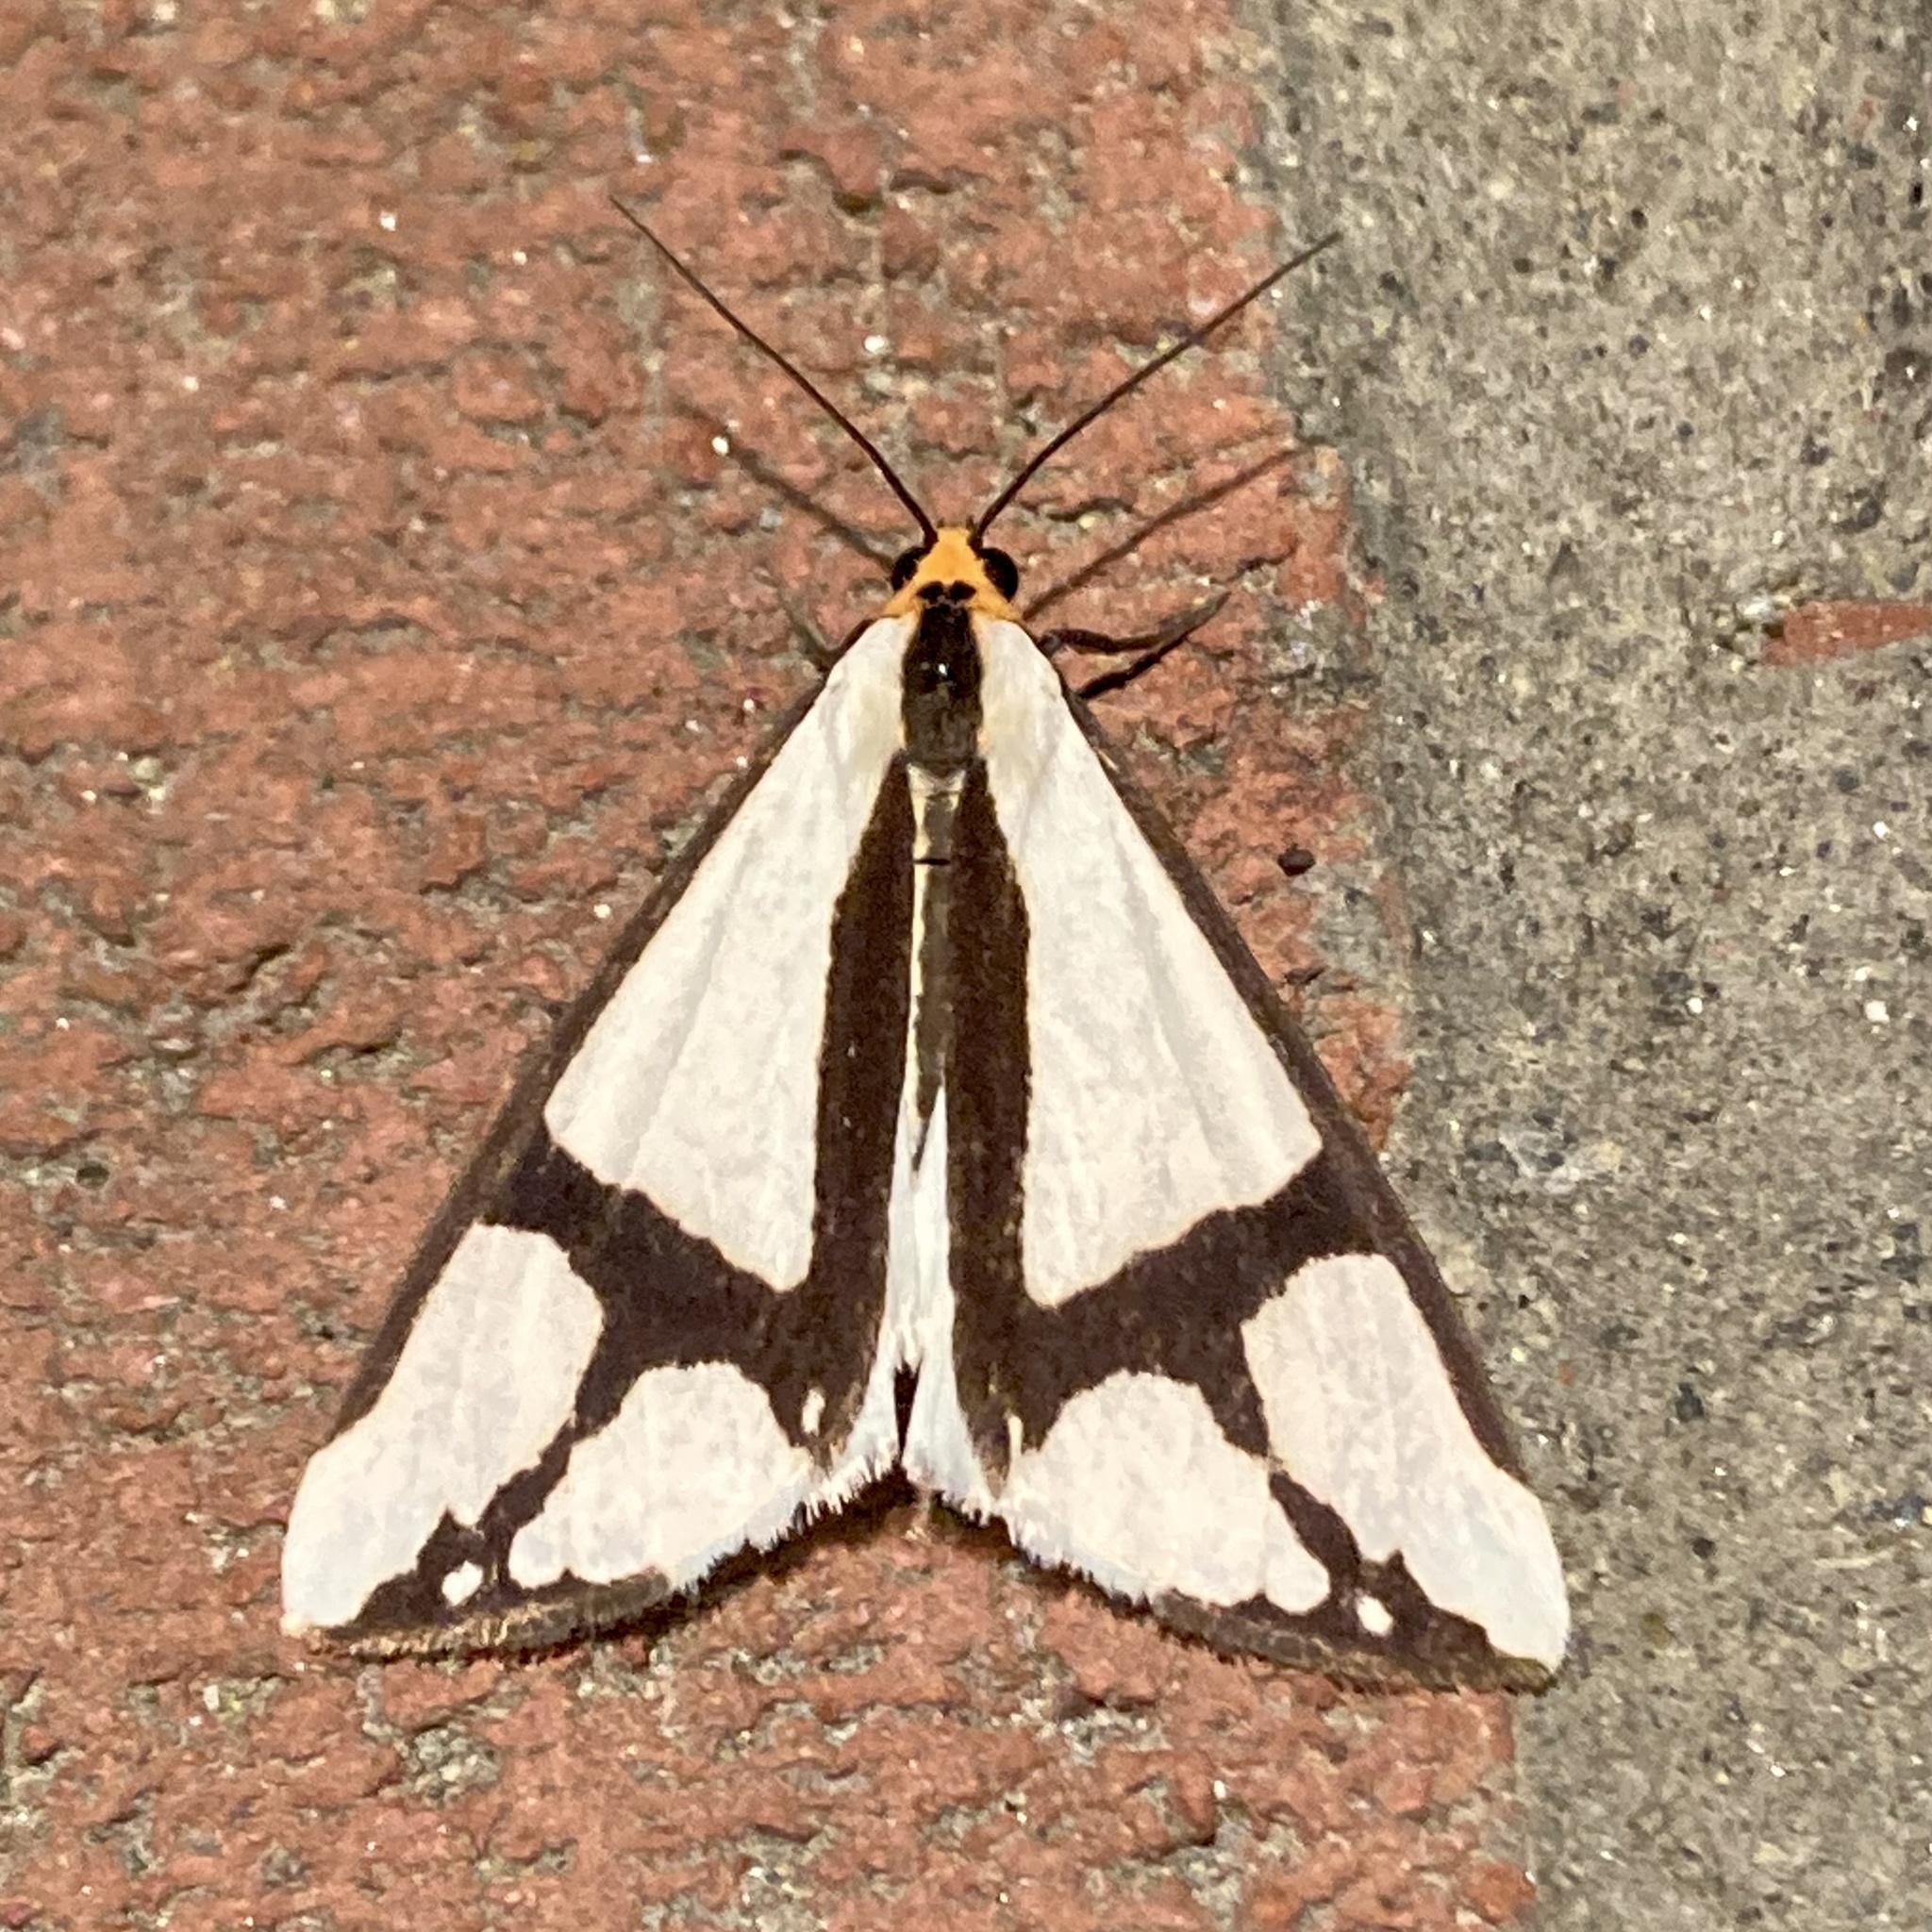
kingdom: Animalia
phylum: Arthropoda
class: Insecta
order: Lepidoptera
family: Erebidae
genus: Haploa
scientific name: Haploa contigua
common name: Neighbor moth
